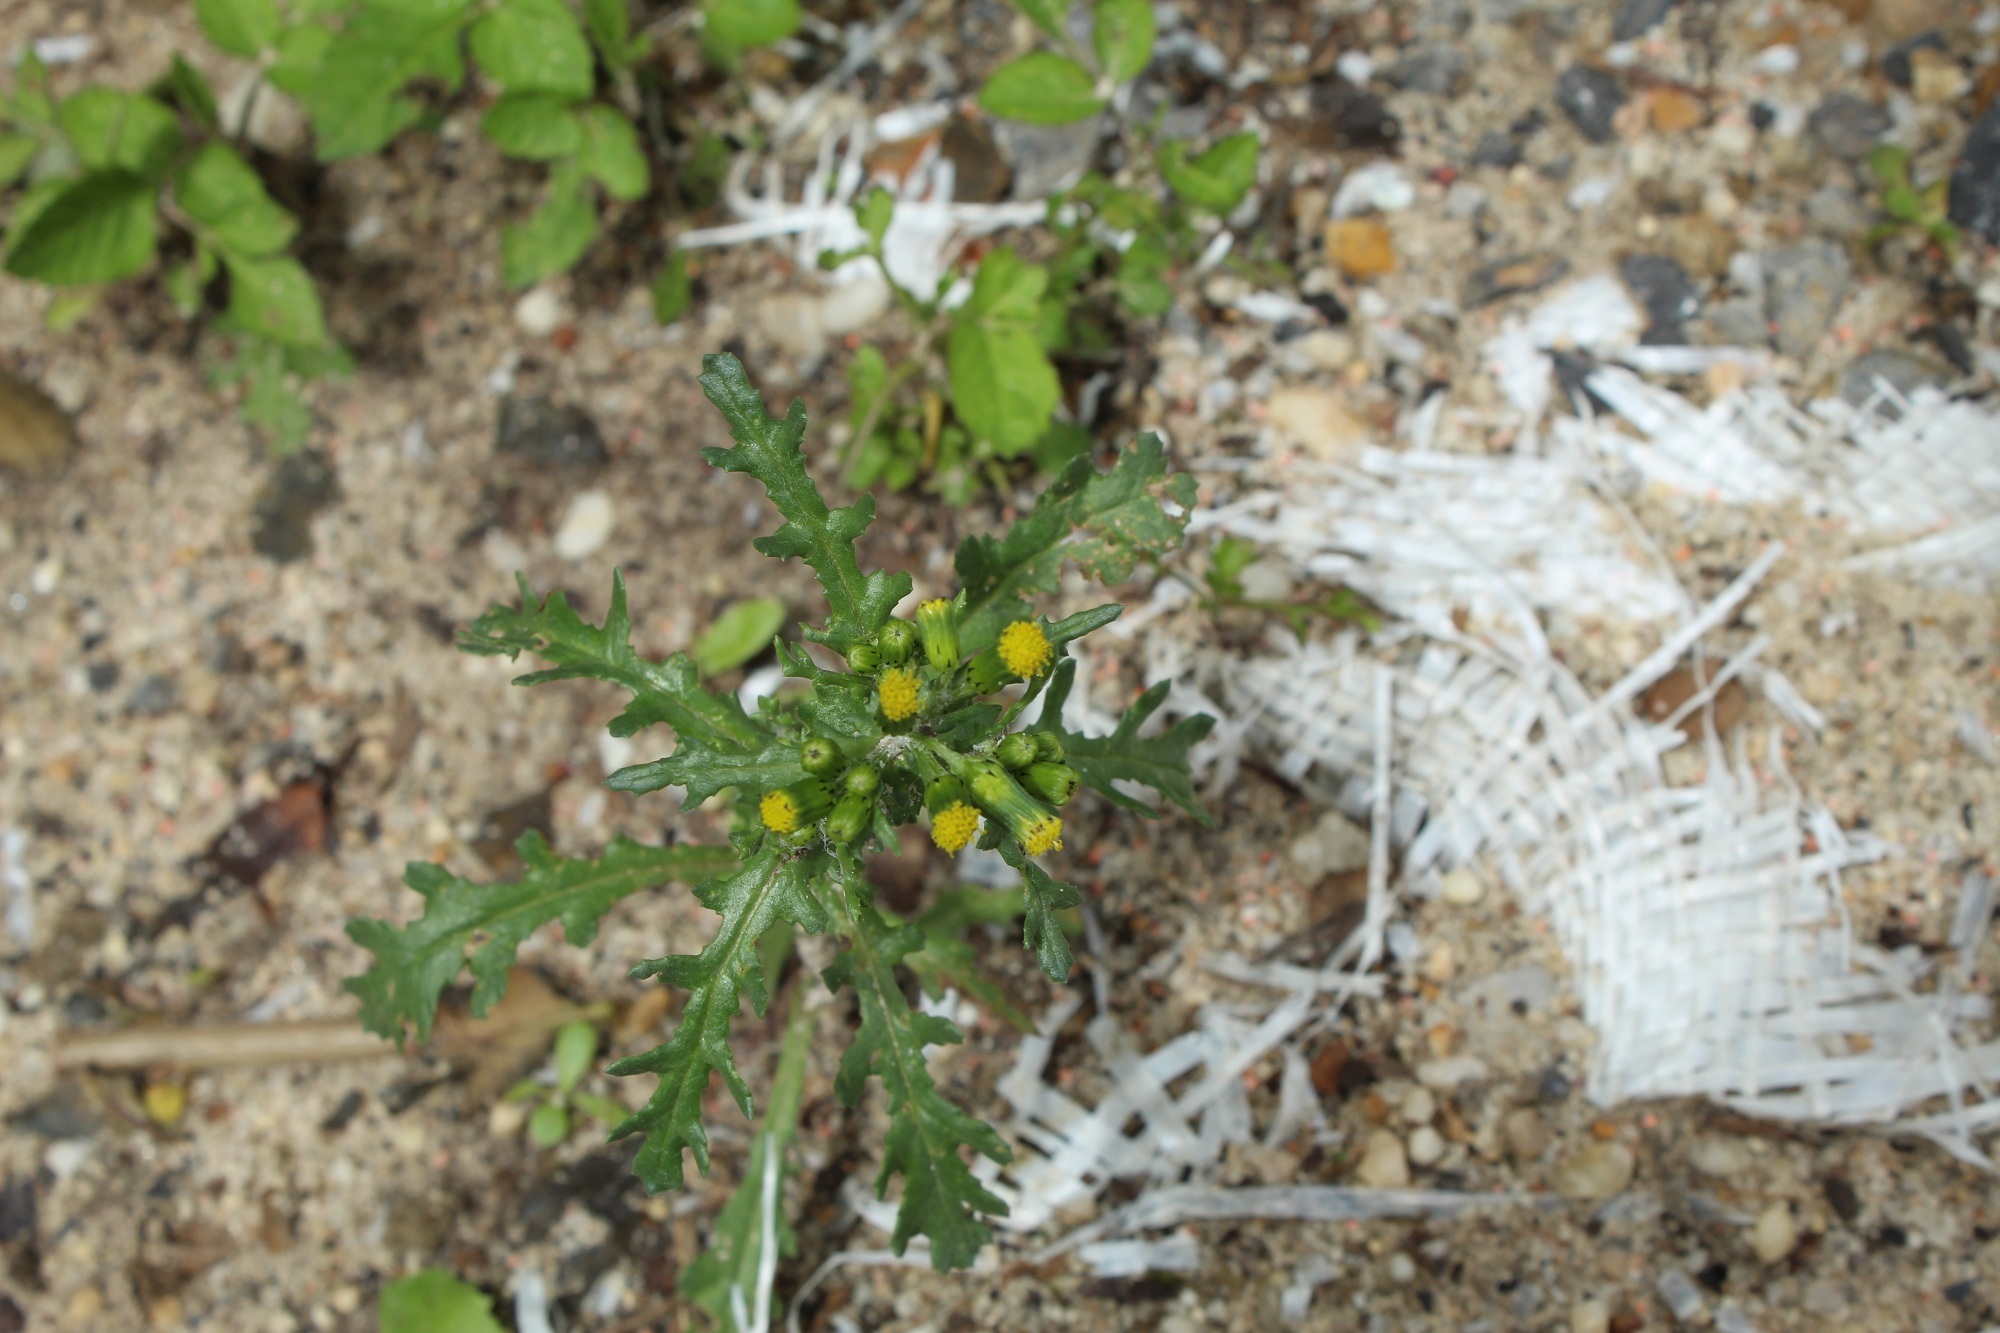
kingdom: Plantae
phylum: Tracheophyta
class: Magnoliopsida
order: Asterales
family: Asteraceae
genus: Senecio
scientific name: Senecio vulgaris
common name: Old-man-in-the-spring
